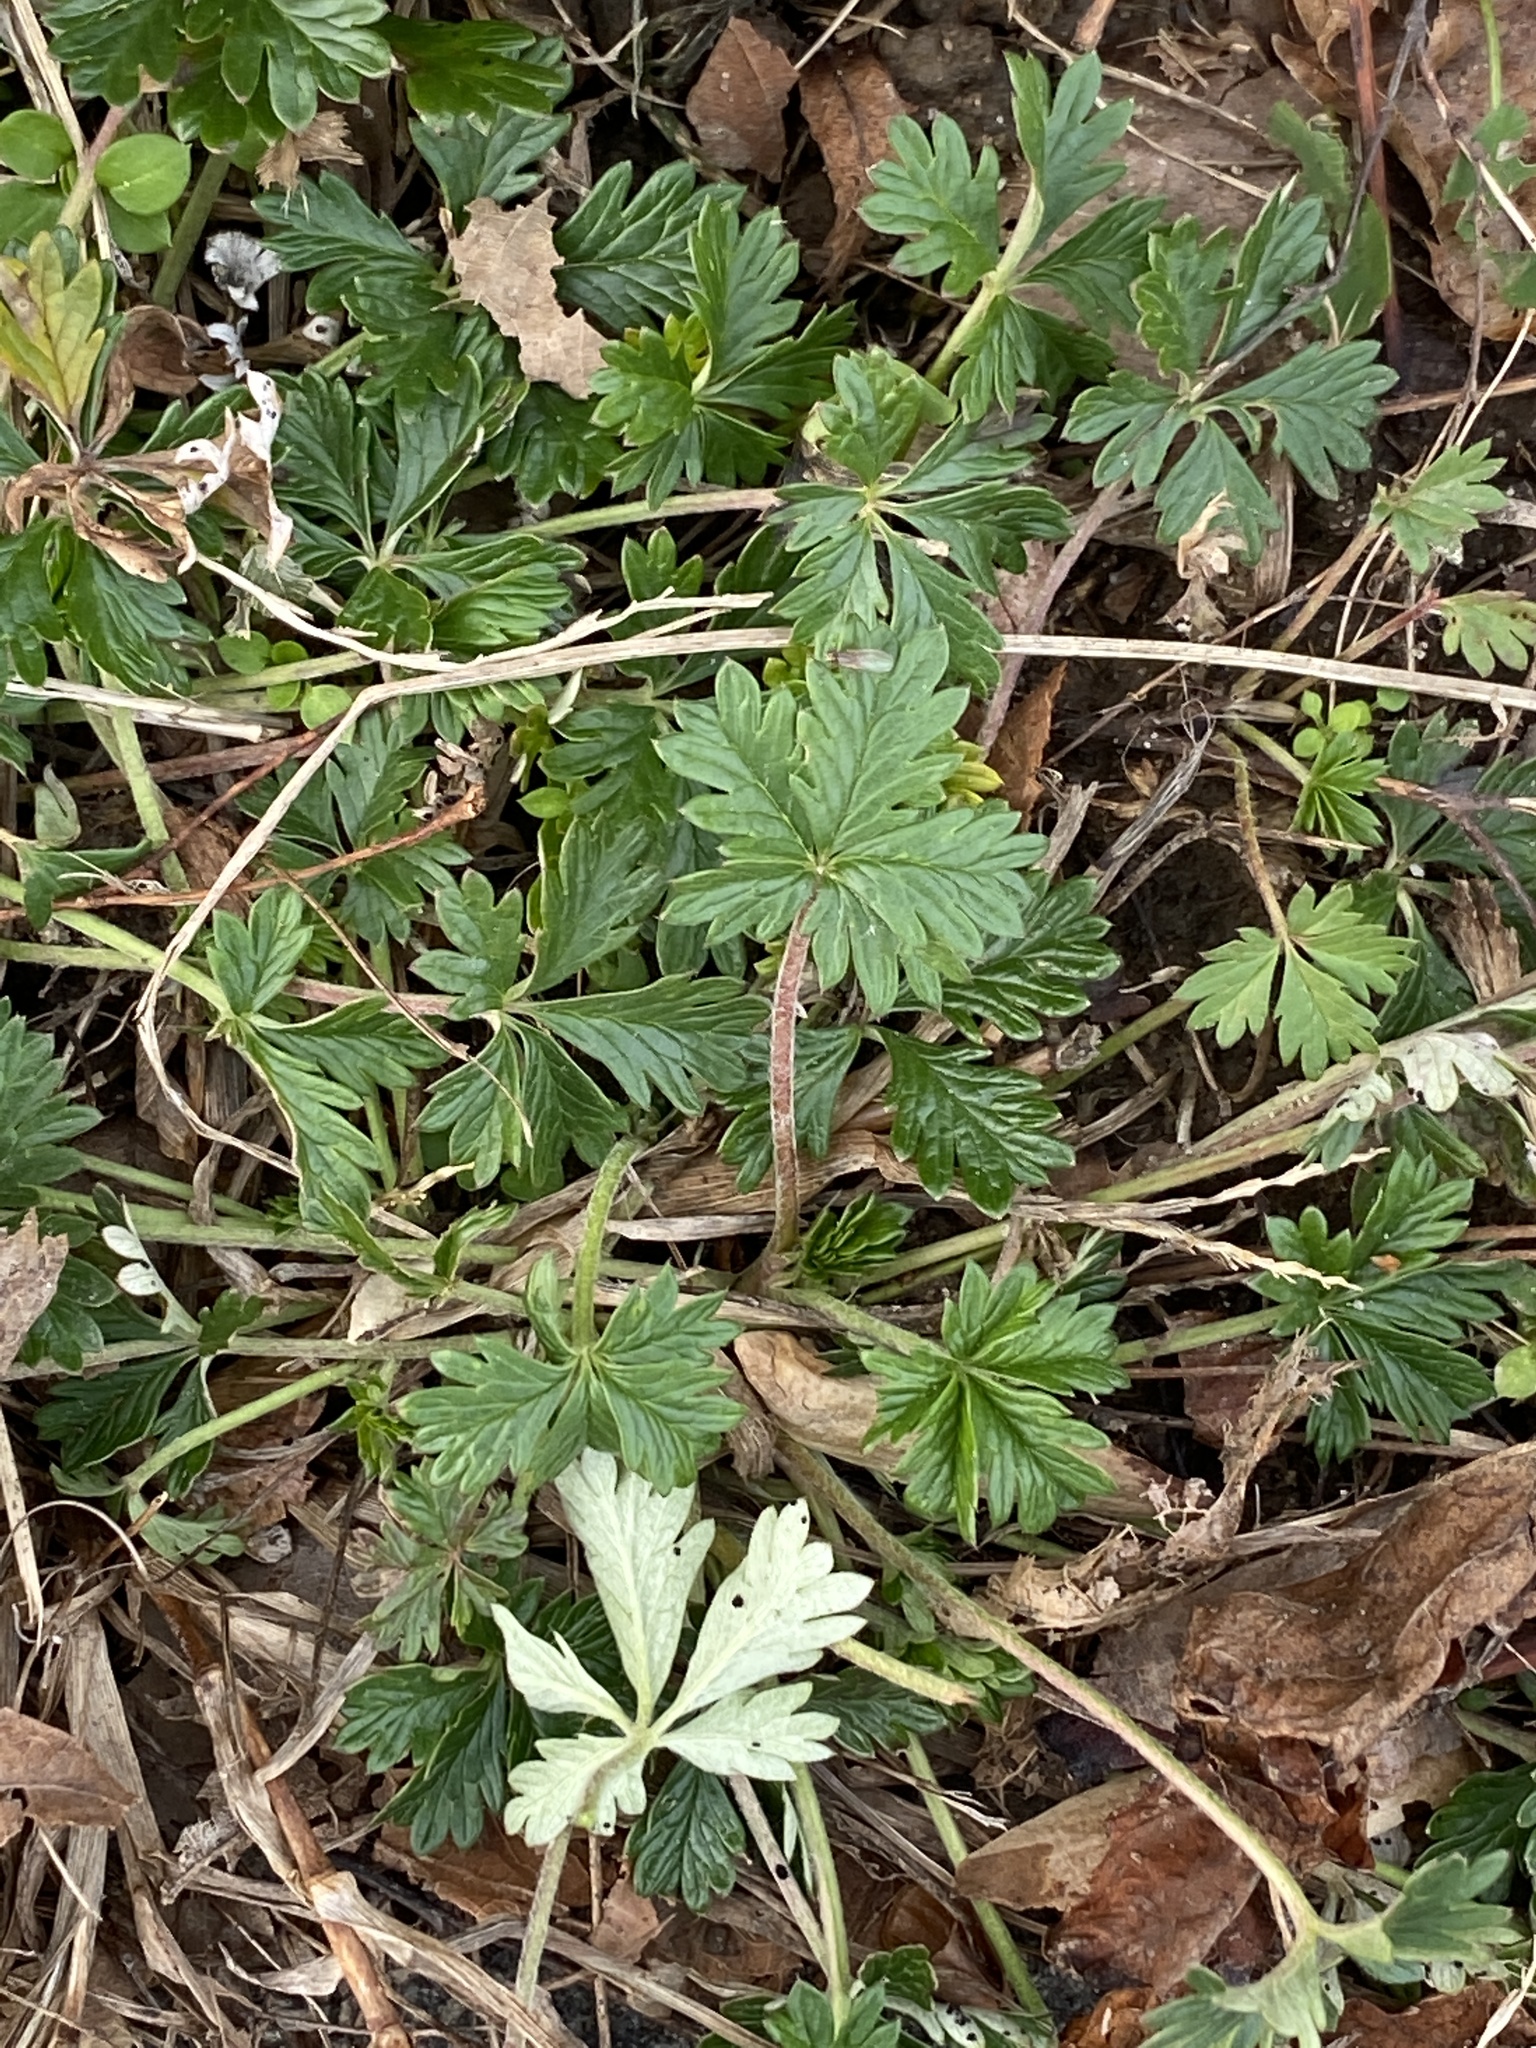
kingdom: Plantae
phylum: Tracheophyta
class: Magnoliopsida
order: Rosales
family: Rosaceae
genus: Potentilla
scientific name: Potentilla argentea
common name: Hoary cinquefoil
